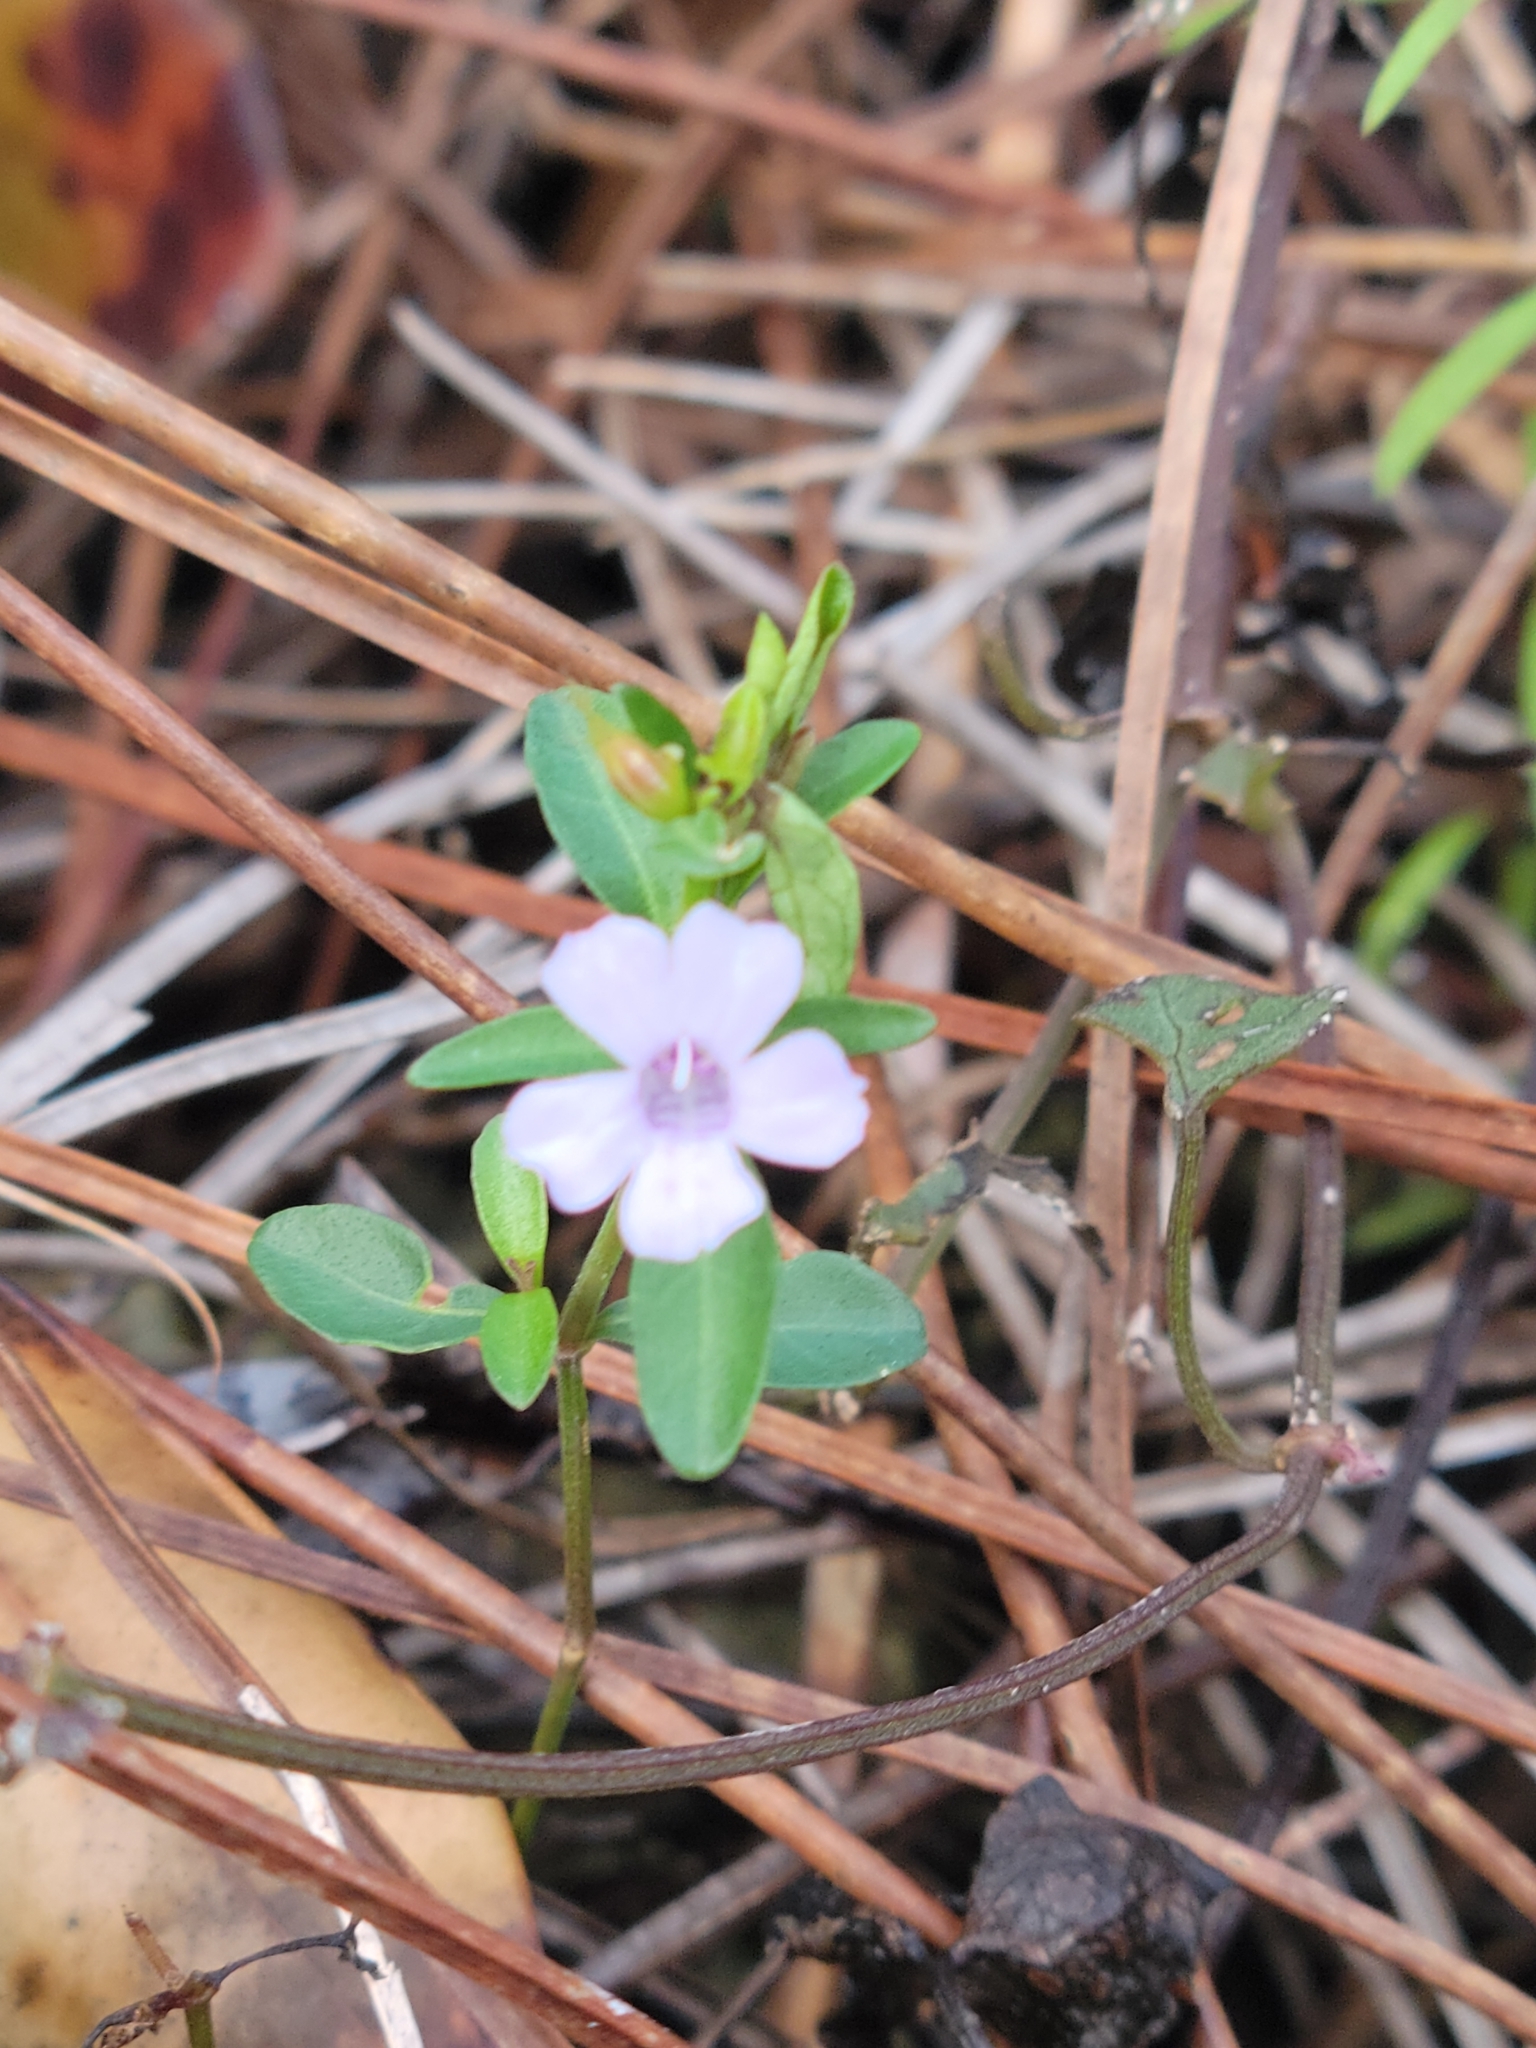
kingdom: Plantae
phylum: Tracheophyta
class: Magnoliopsida
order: Lamiales
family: Acanthaceae
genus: Dyschoriste
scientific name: Dyschoriste angusta
